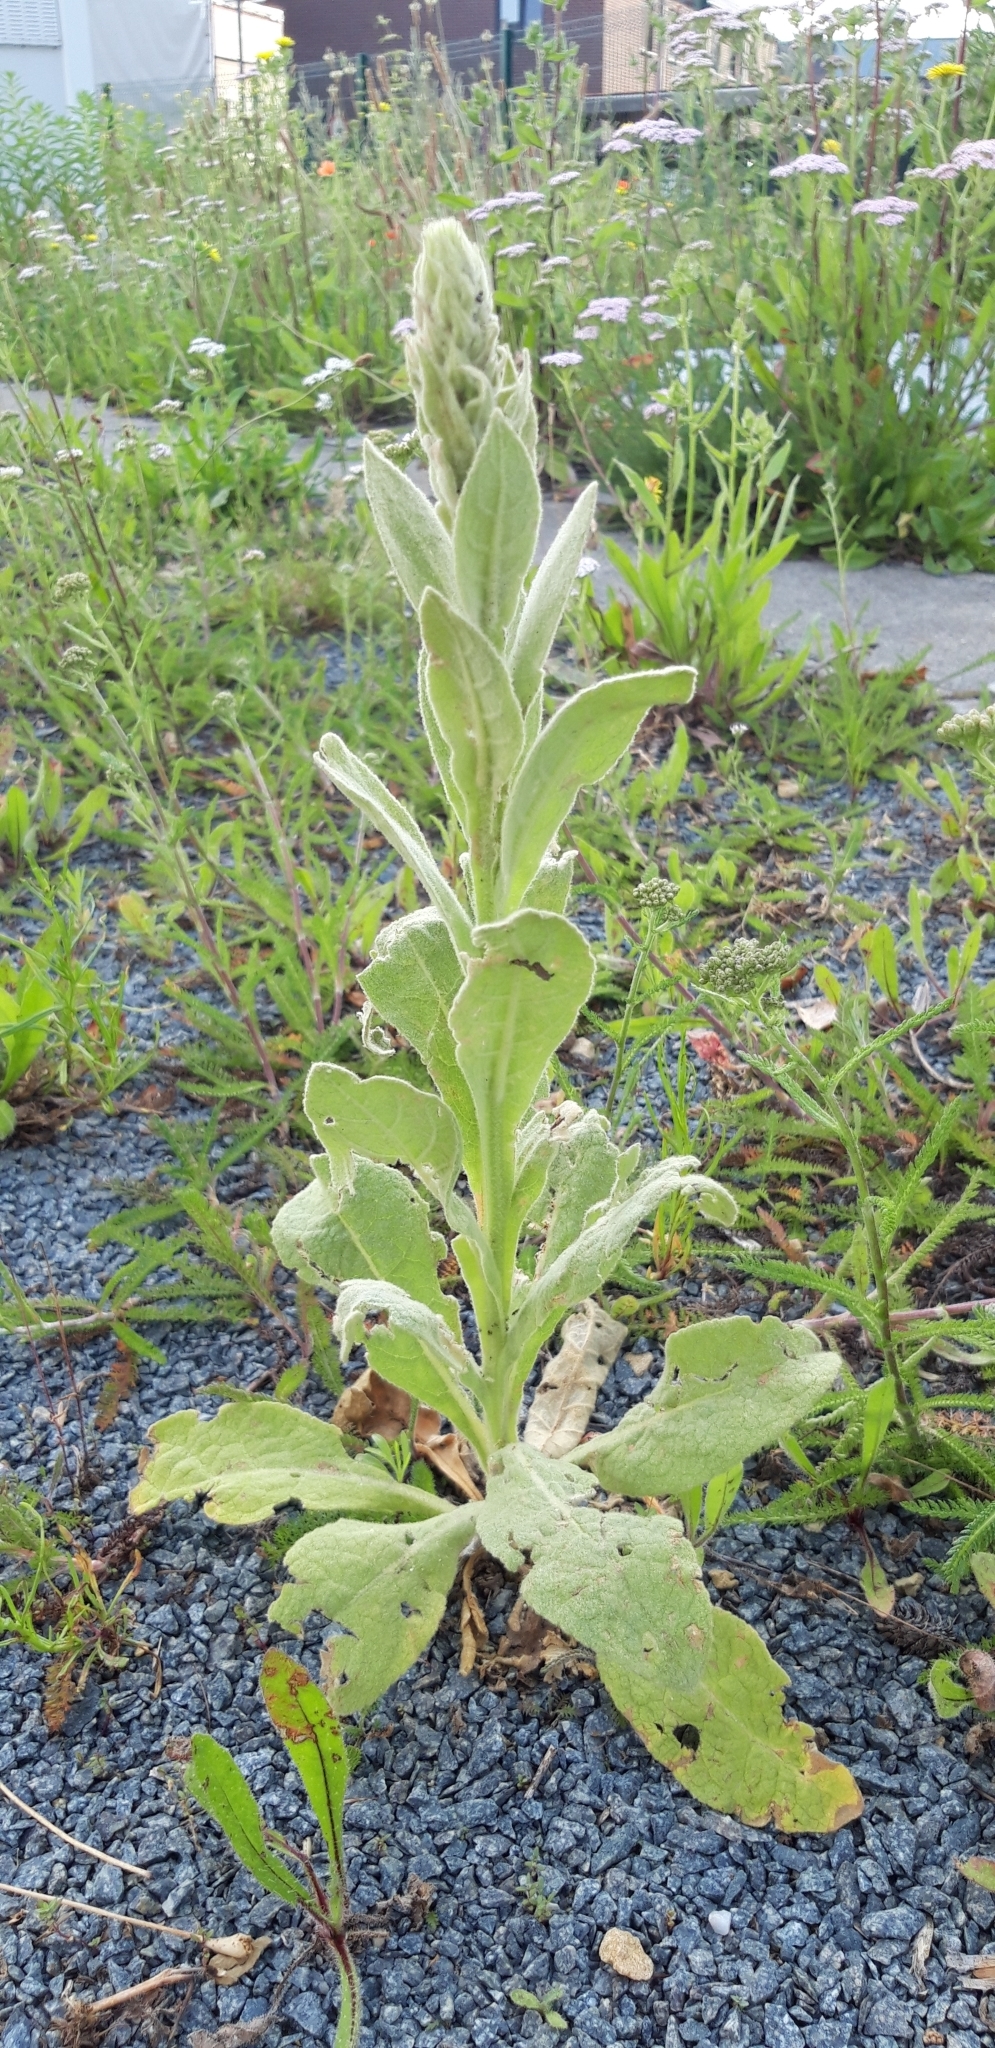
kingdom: Plantae
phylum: Tracheophyta
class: Magnoliopsida
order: Lamiales
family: Scrophulariaceae
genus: Verbascum
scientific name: Verbascum thapsus
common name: Common mullein
